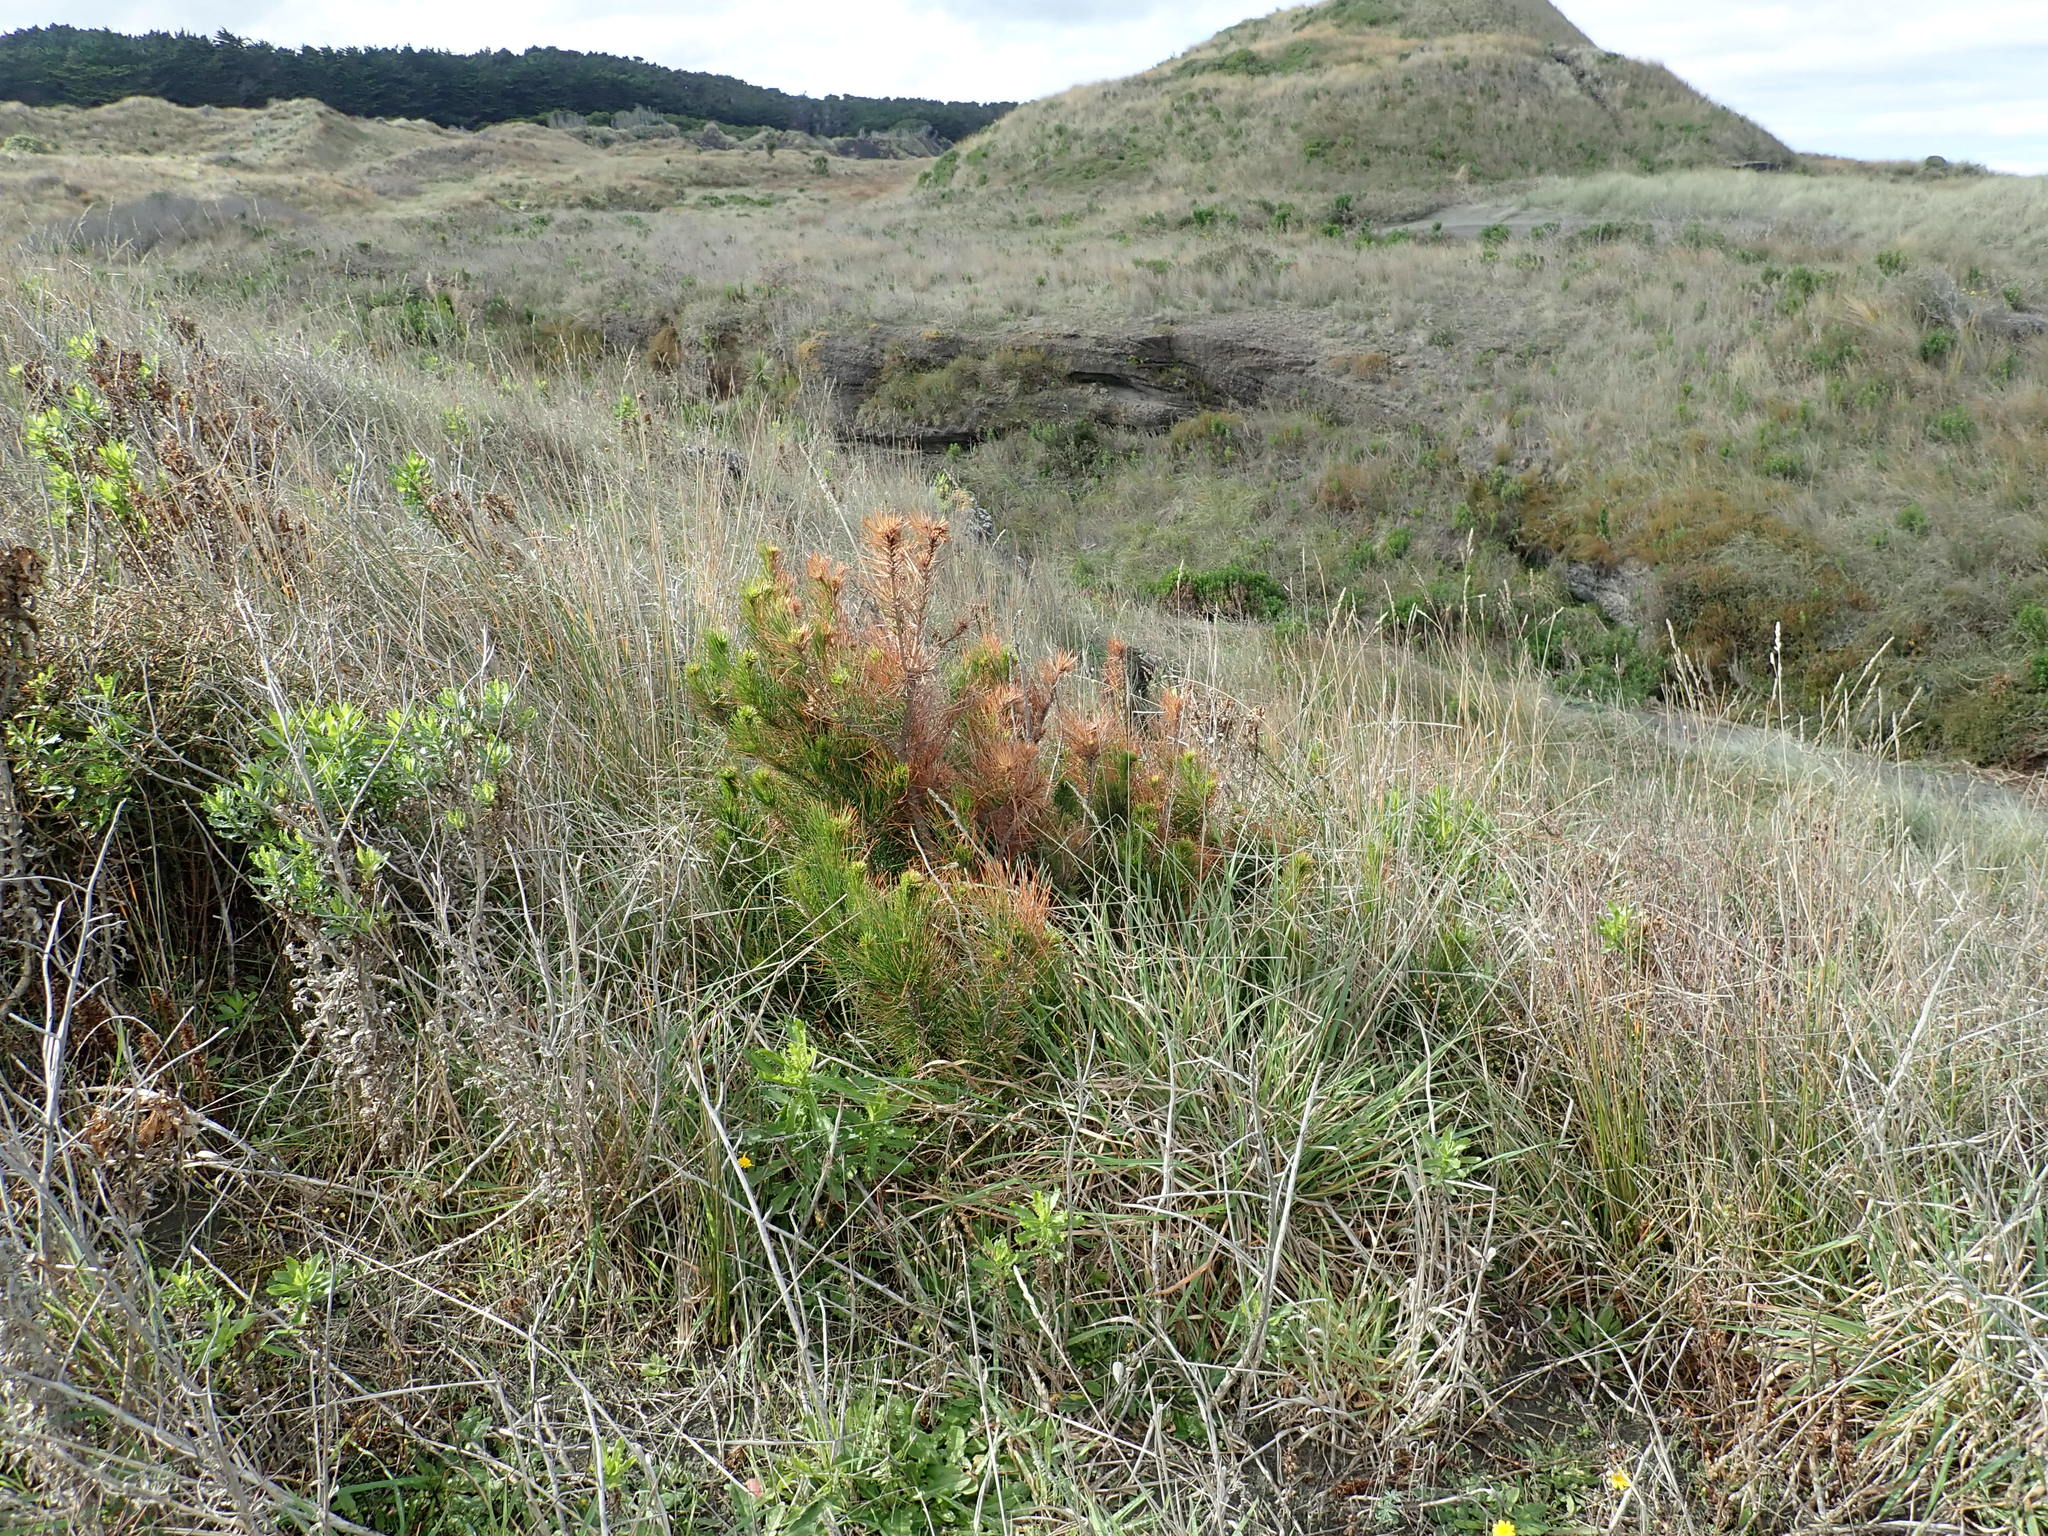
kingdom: Plantae
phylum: Tracheophyta
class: Pinopsida
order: Pinales
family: Pinaceae
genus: Pinus
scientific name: Pinus radiata
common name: Monterey pine
